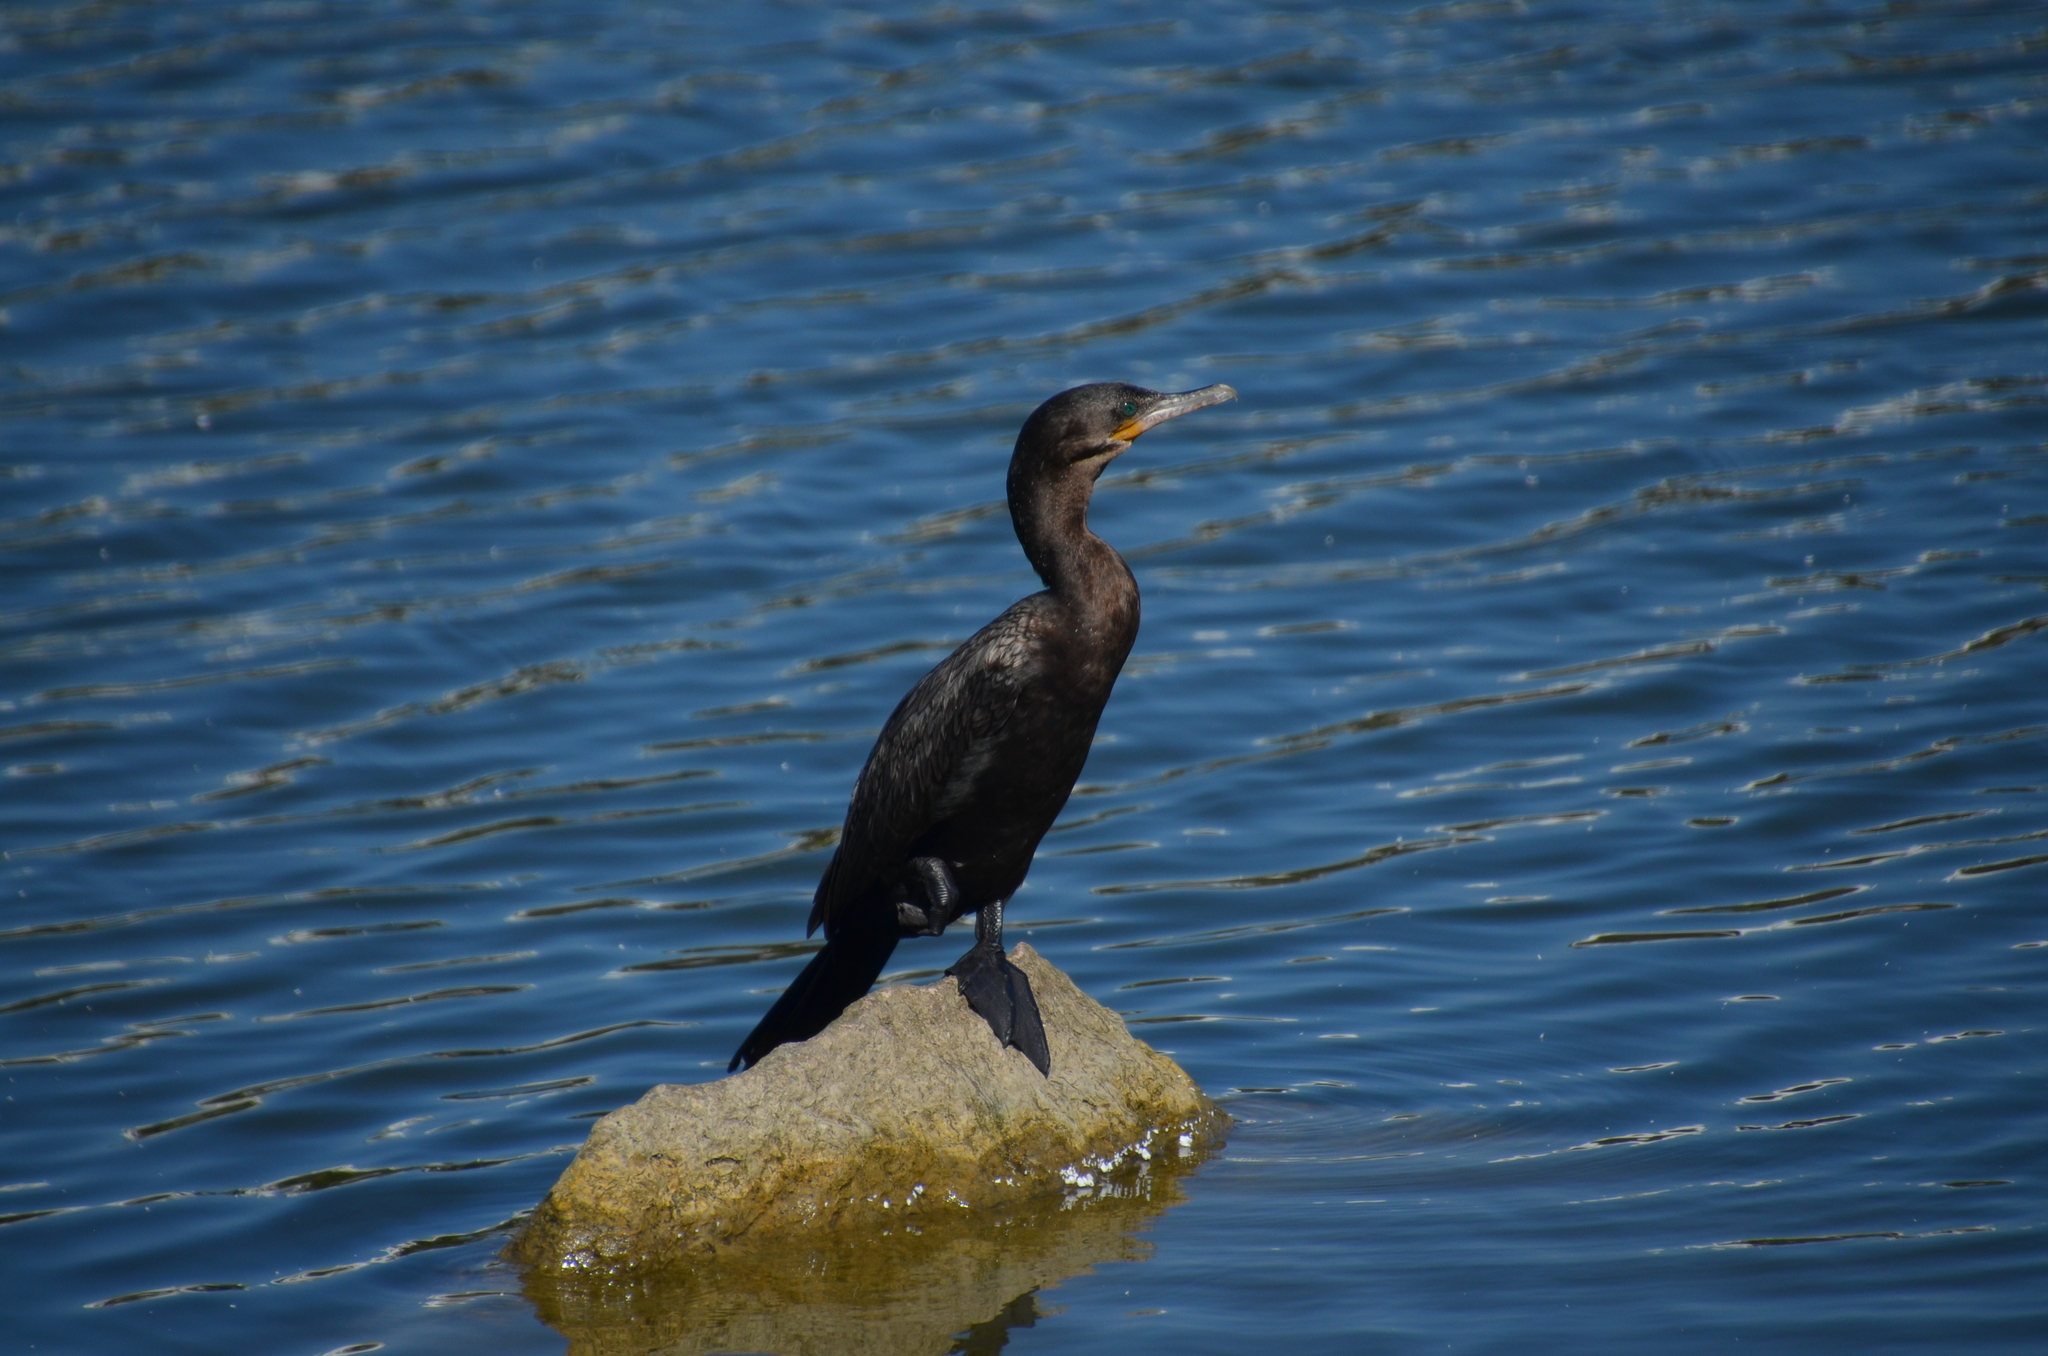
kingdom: Animalia
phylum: Chordata
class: Aves
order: Suliformes
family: Phalacrocoracidae
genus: Phalacrocorax
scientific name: Phalacrocorax brasilianus
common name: Neotropic cormorant
